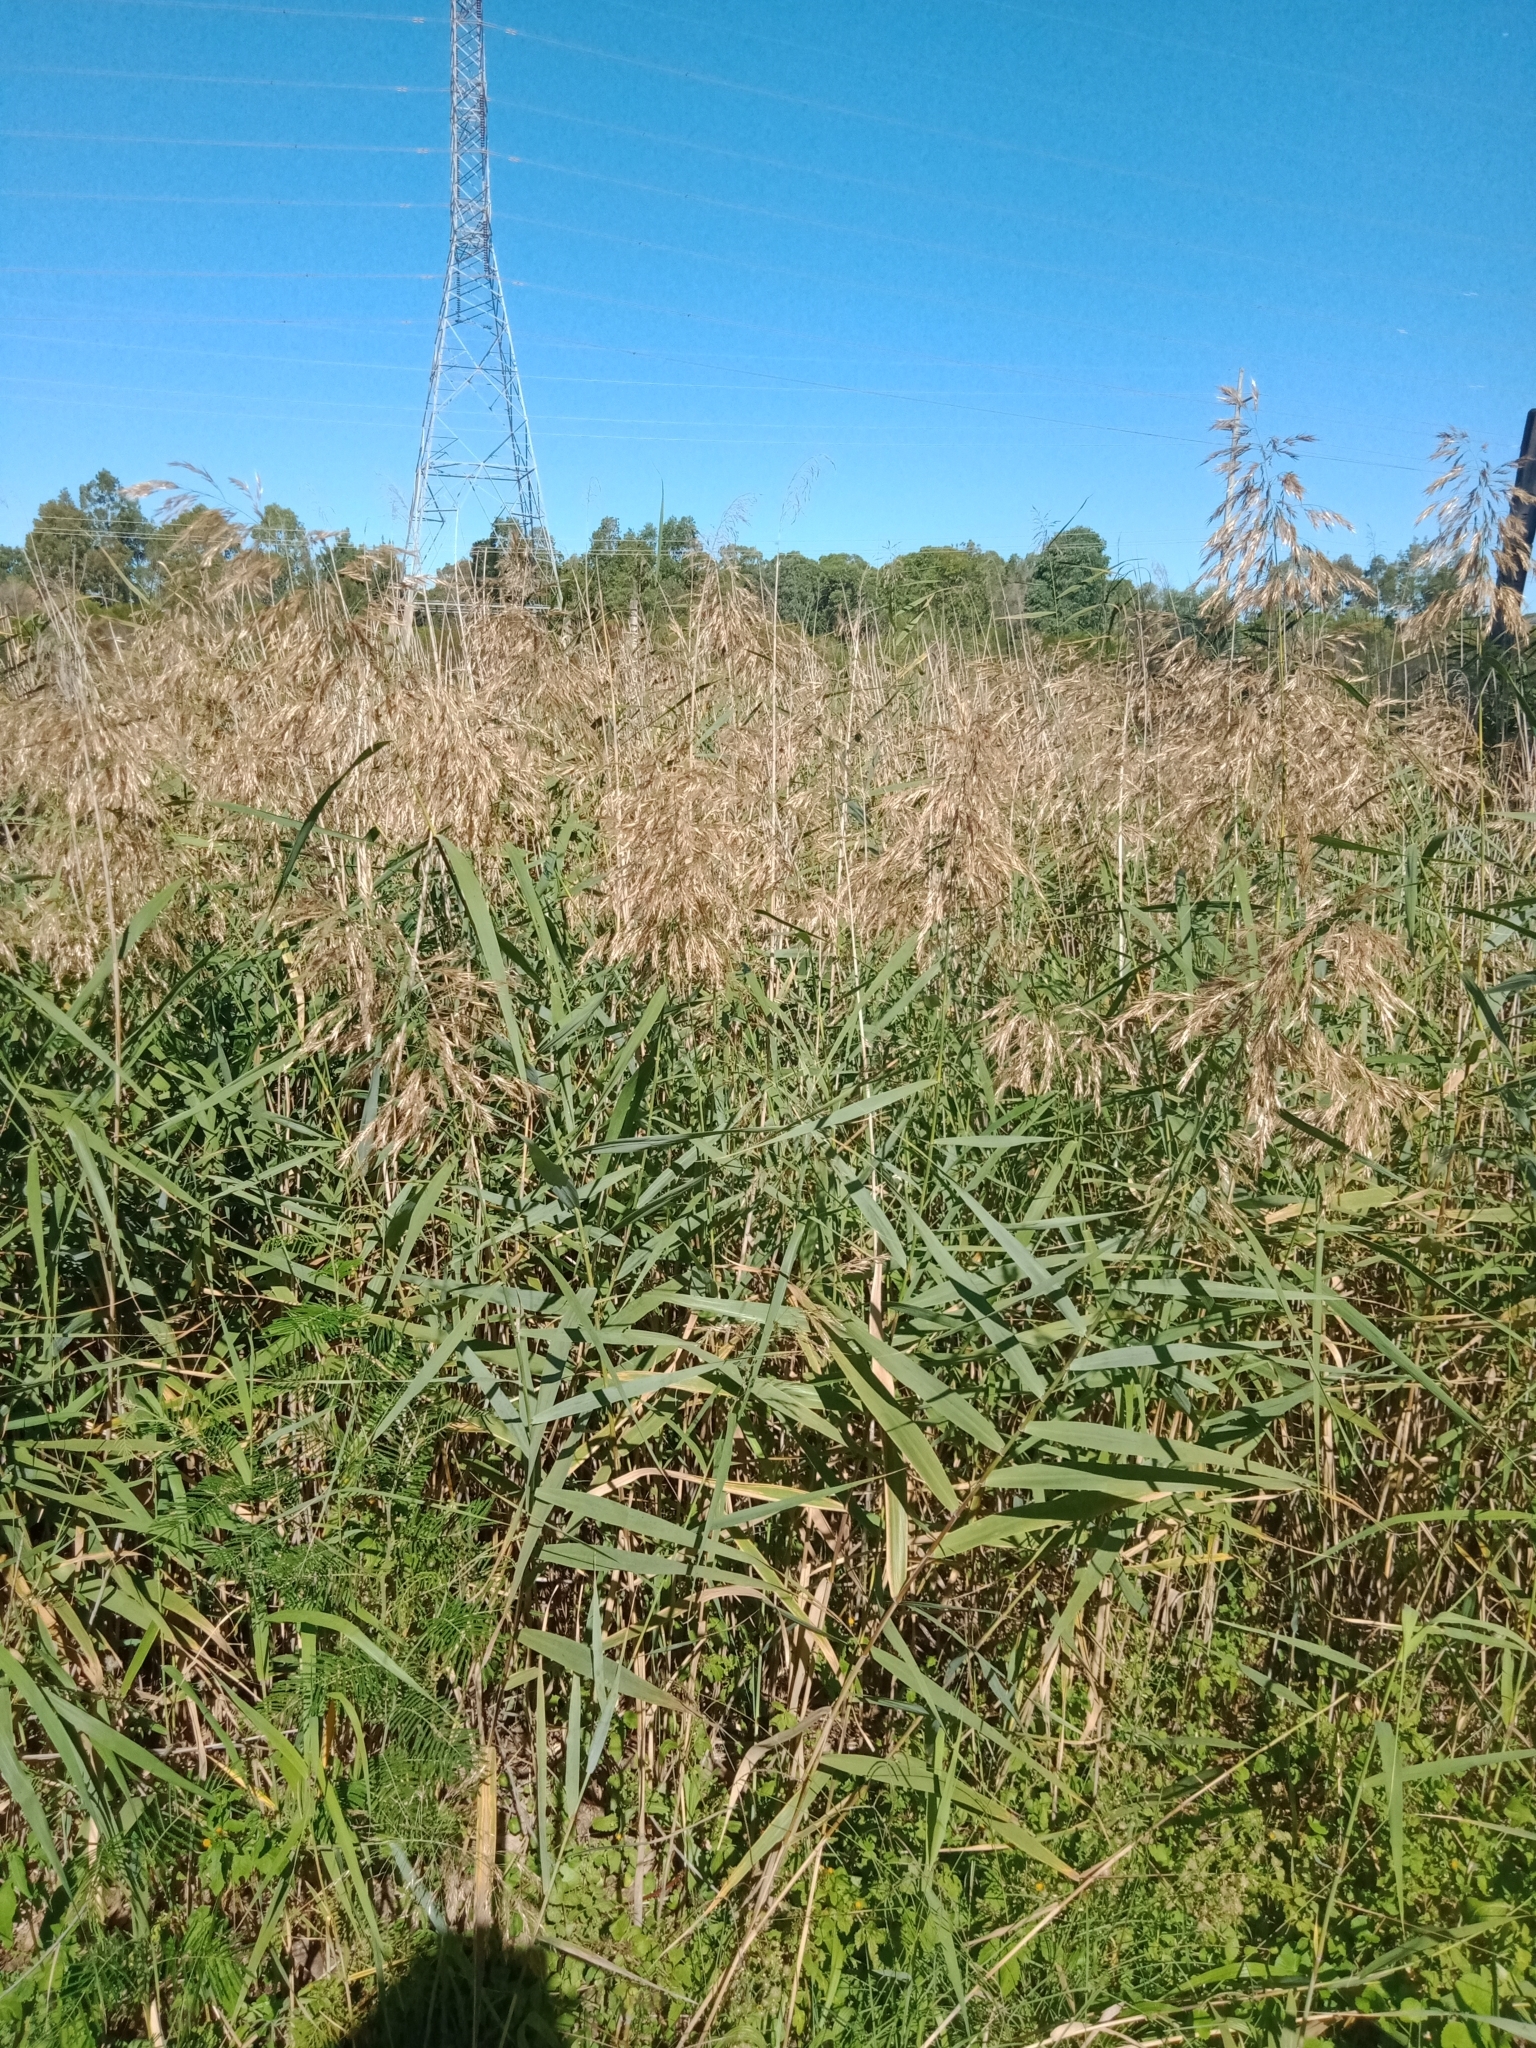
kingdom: Plantae
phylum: Tracheophyta
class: Liliopsida
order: Poales
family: Poaceae
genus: Phragmites
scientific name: Phragmites australis
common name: Common reed
